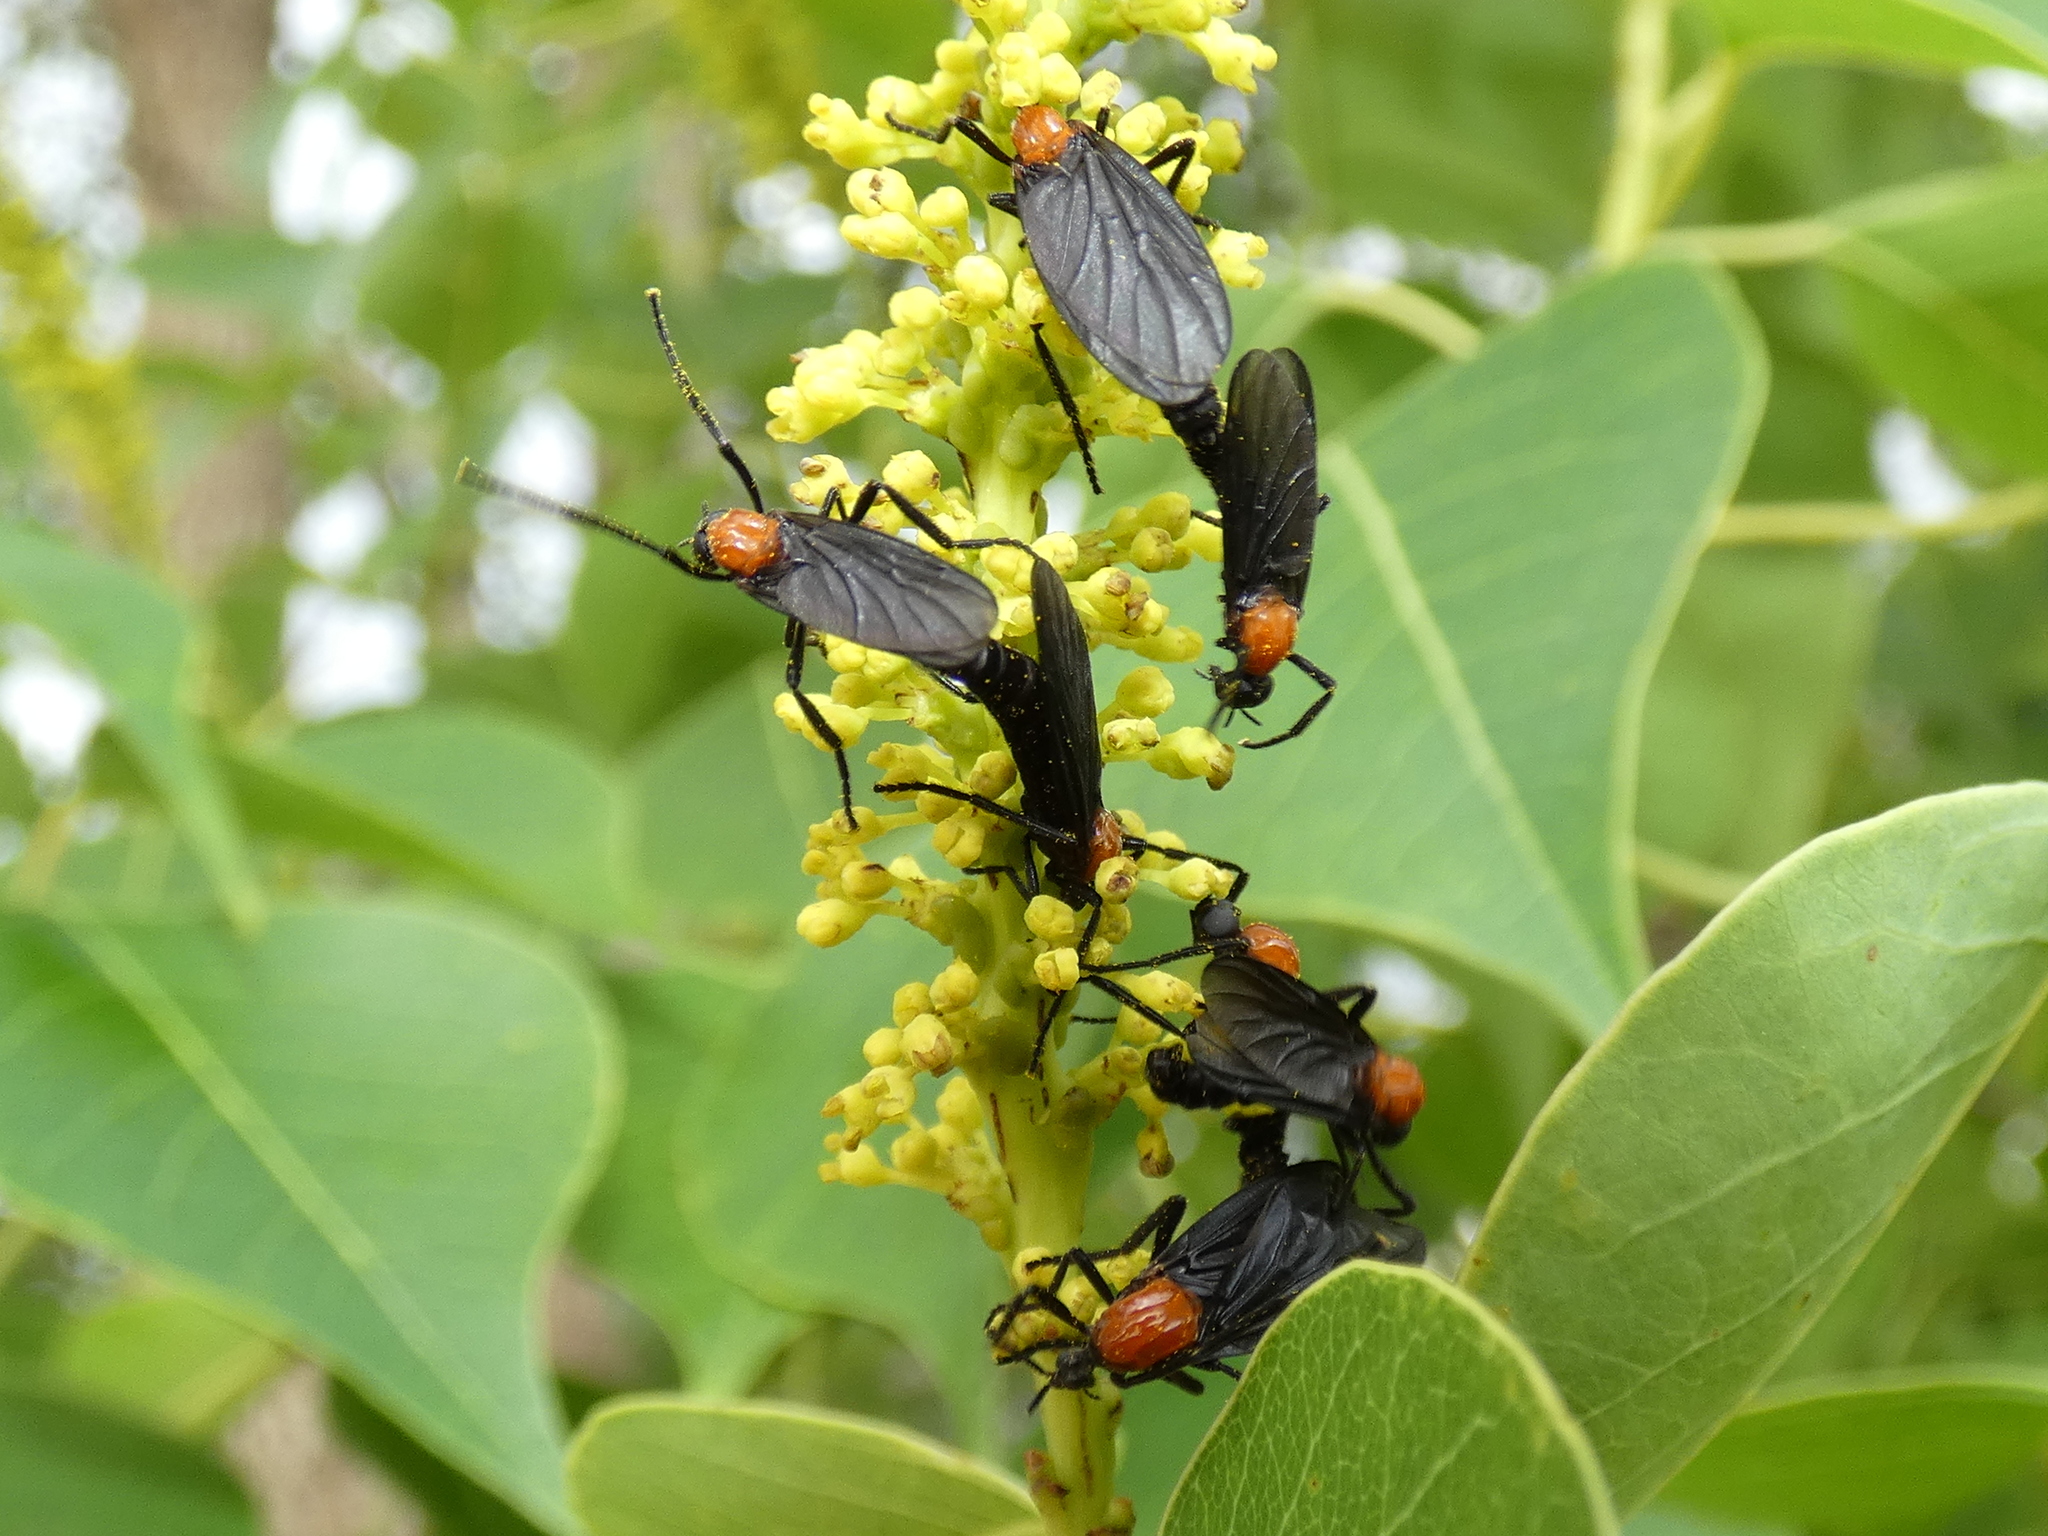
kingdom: Animalia
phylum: Arthropoda
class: Insecta
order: Diptera
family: Bibionidae
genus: Plecia
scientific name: Plecia nearctica
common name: March fly
